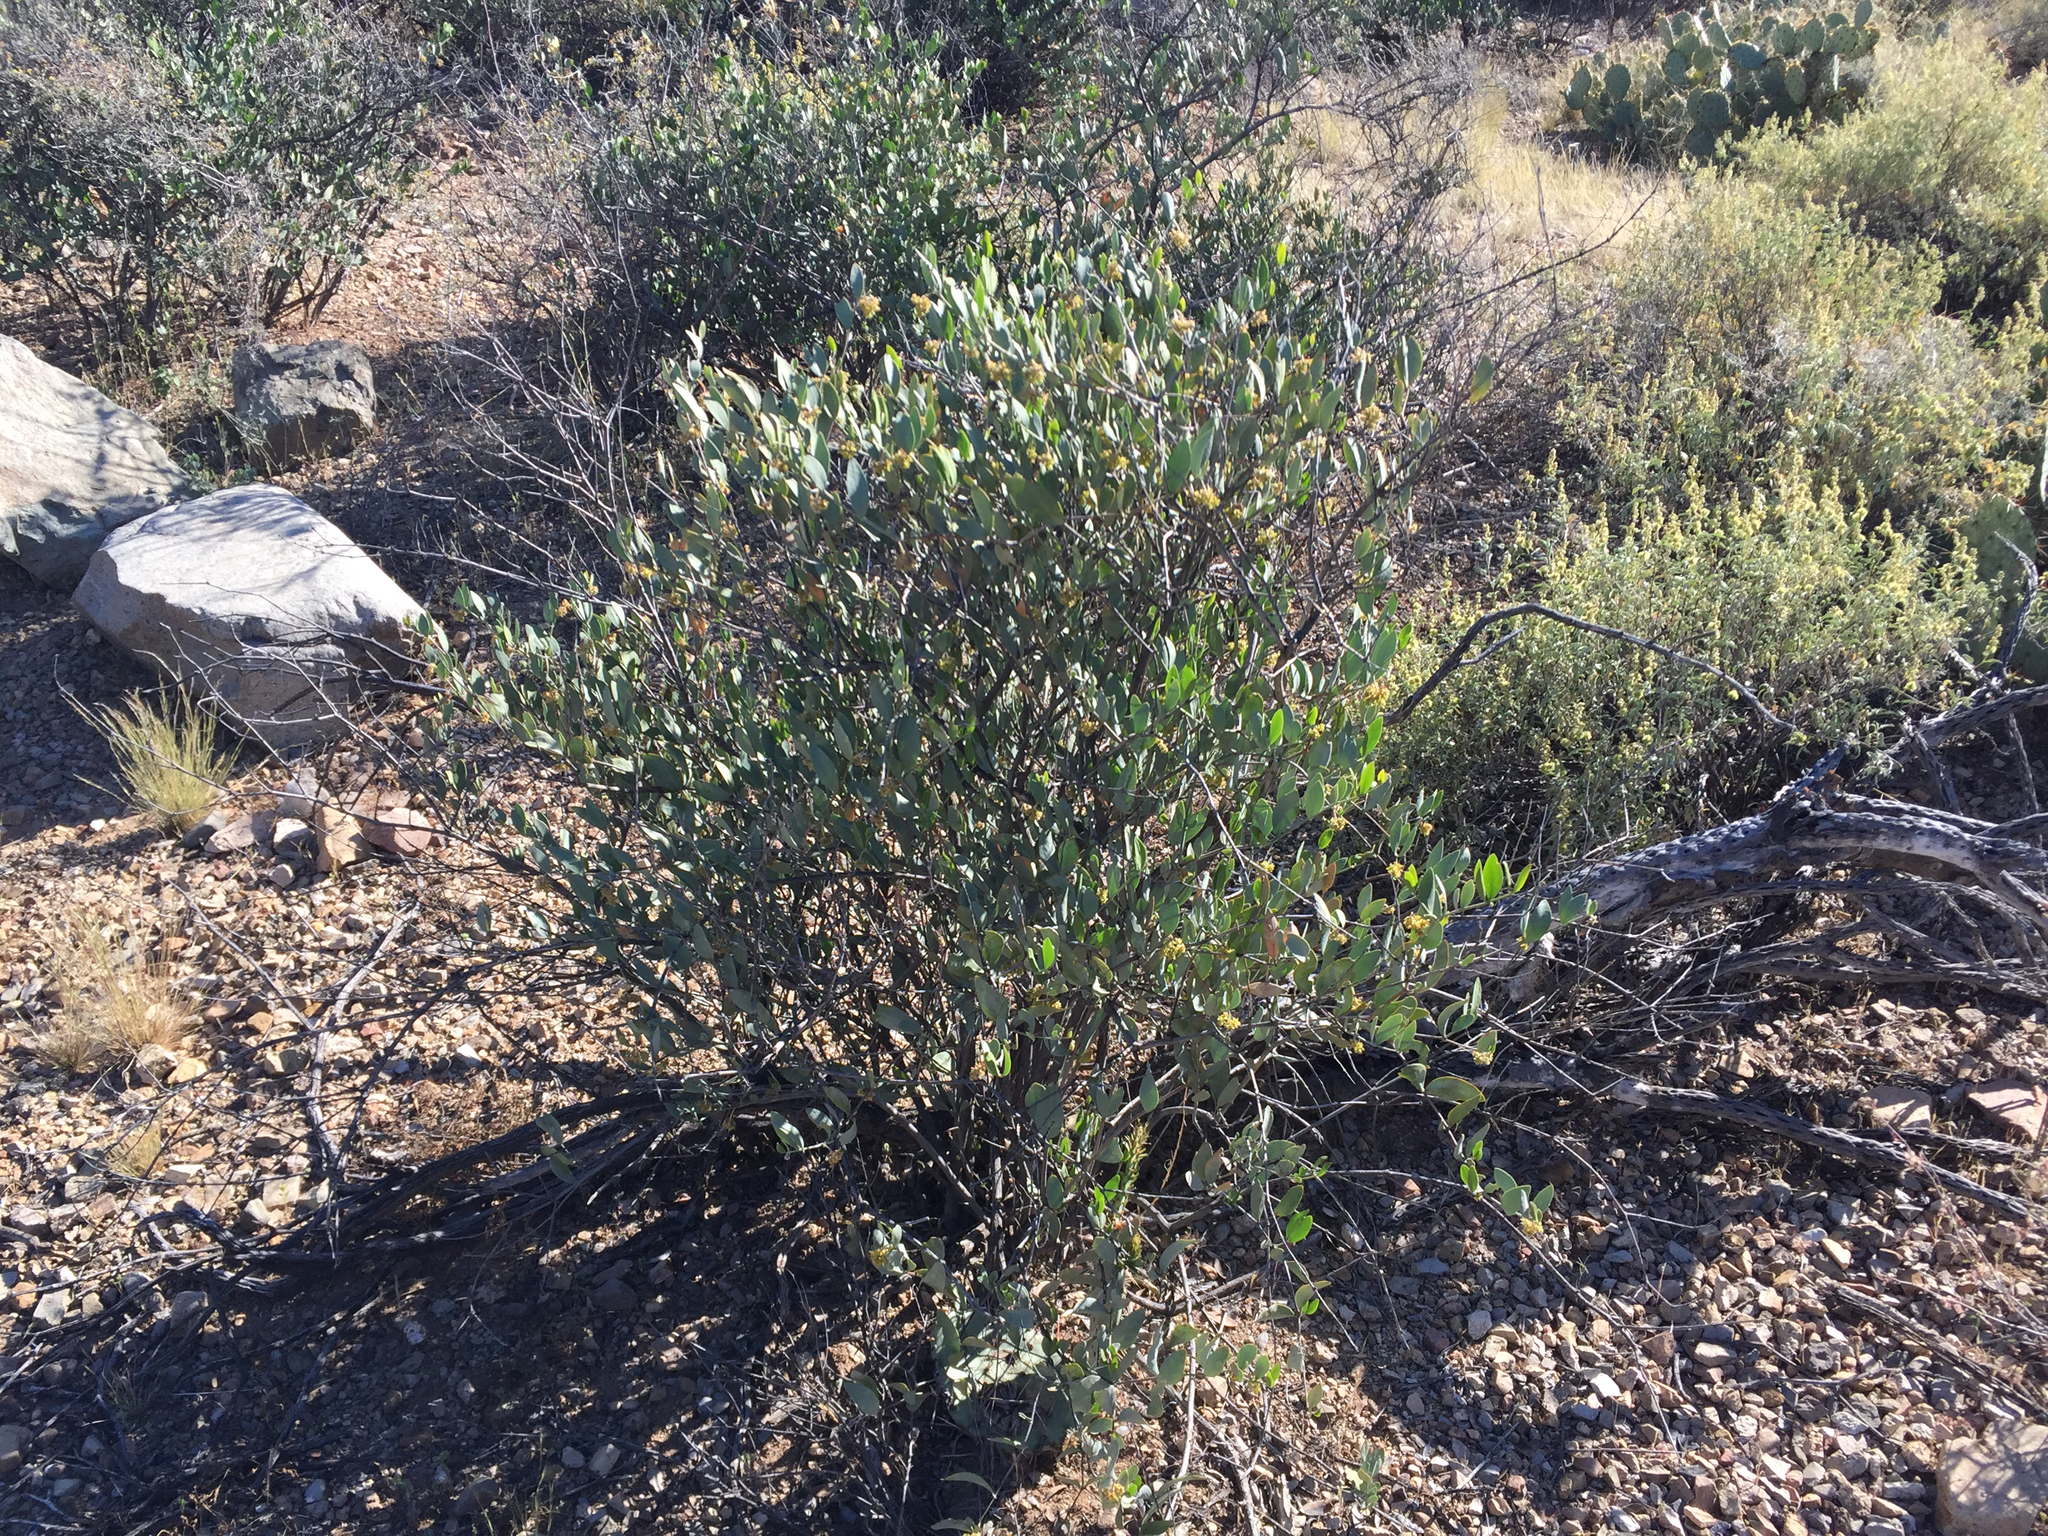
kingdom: Plantae
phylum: Tracheophyta
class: Magnoliopsida
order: Caryophyllales
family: Simmondsiaceae
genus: Simmondsia
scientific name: Simmondsia chinensis
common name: Jojoba
